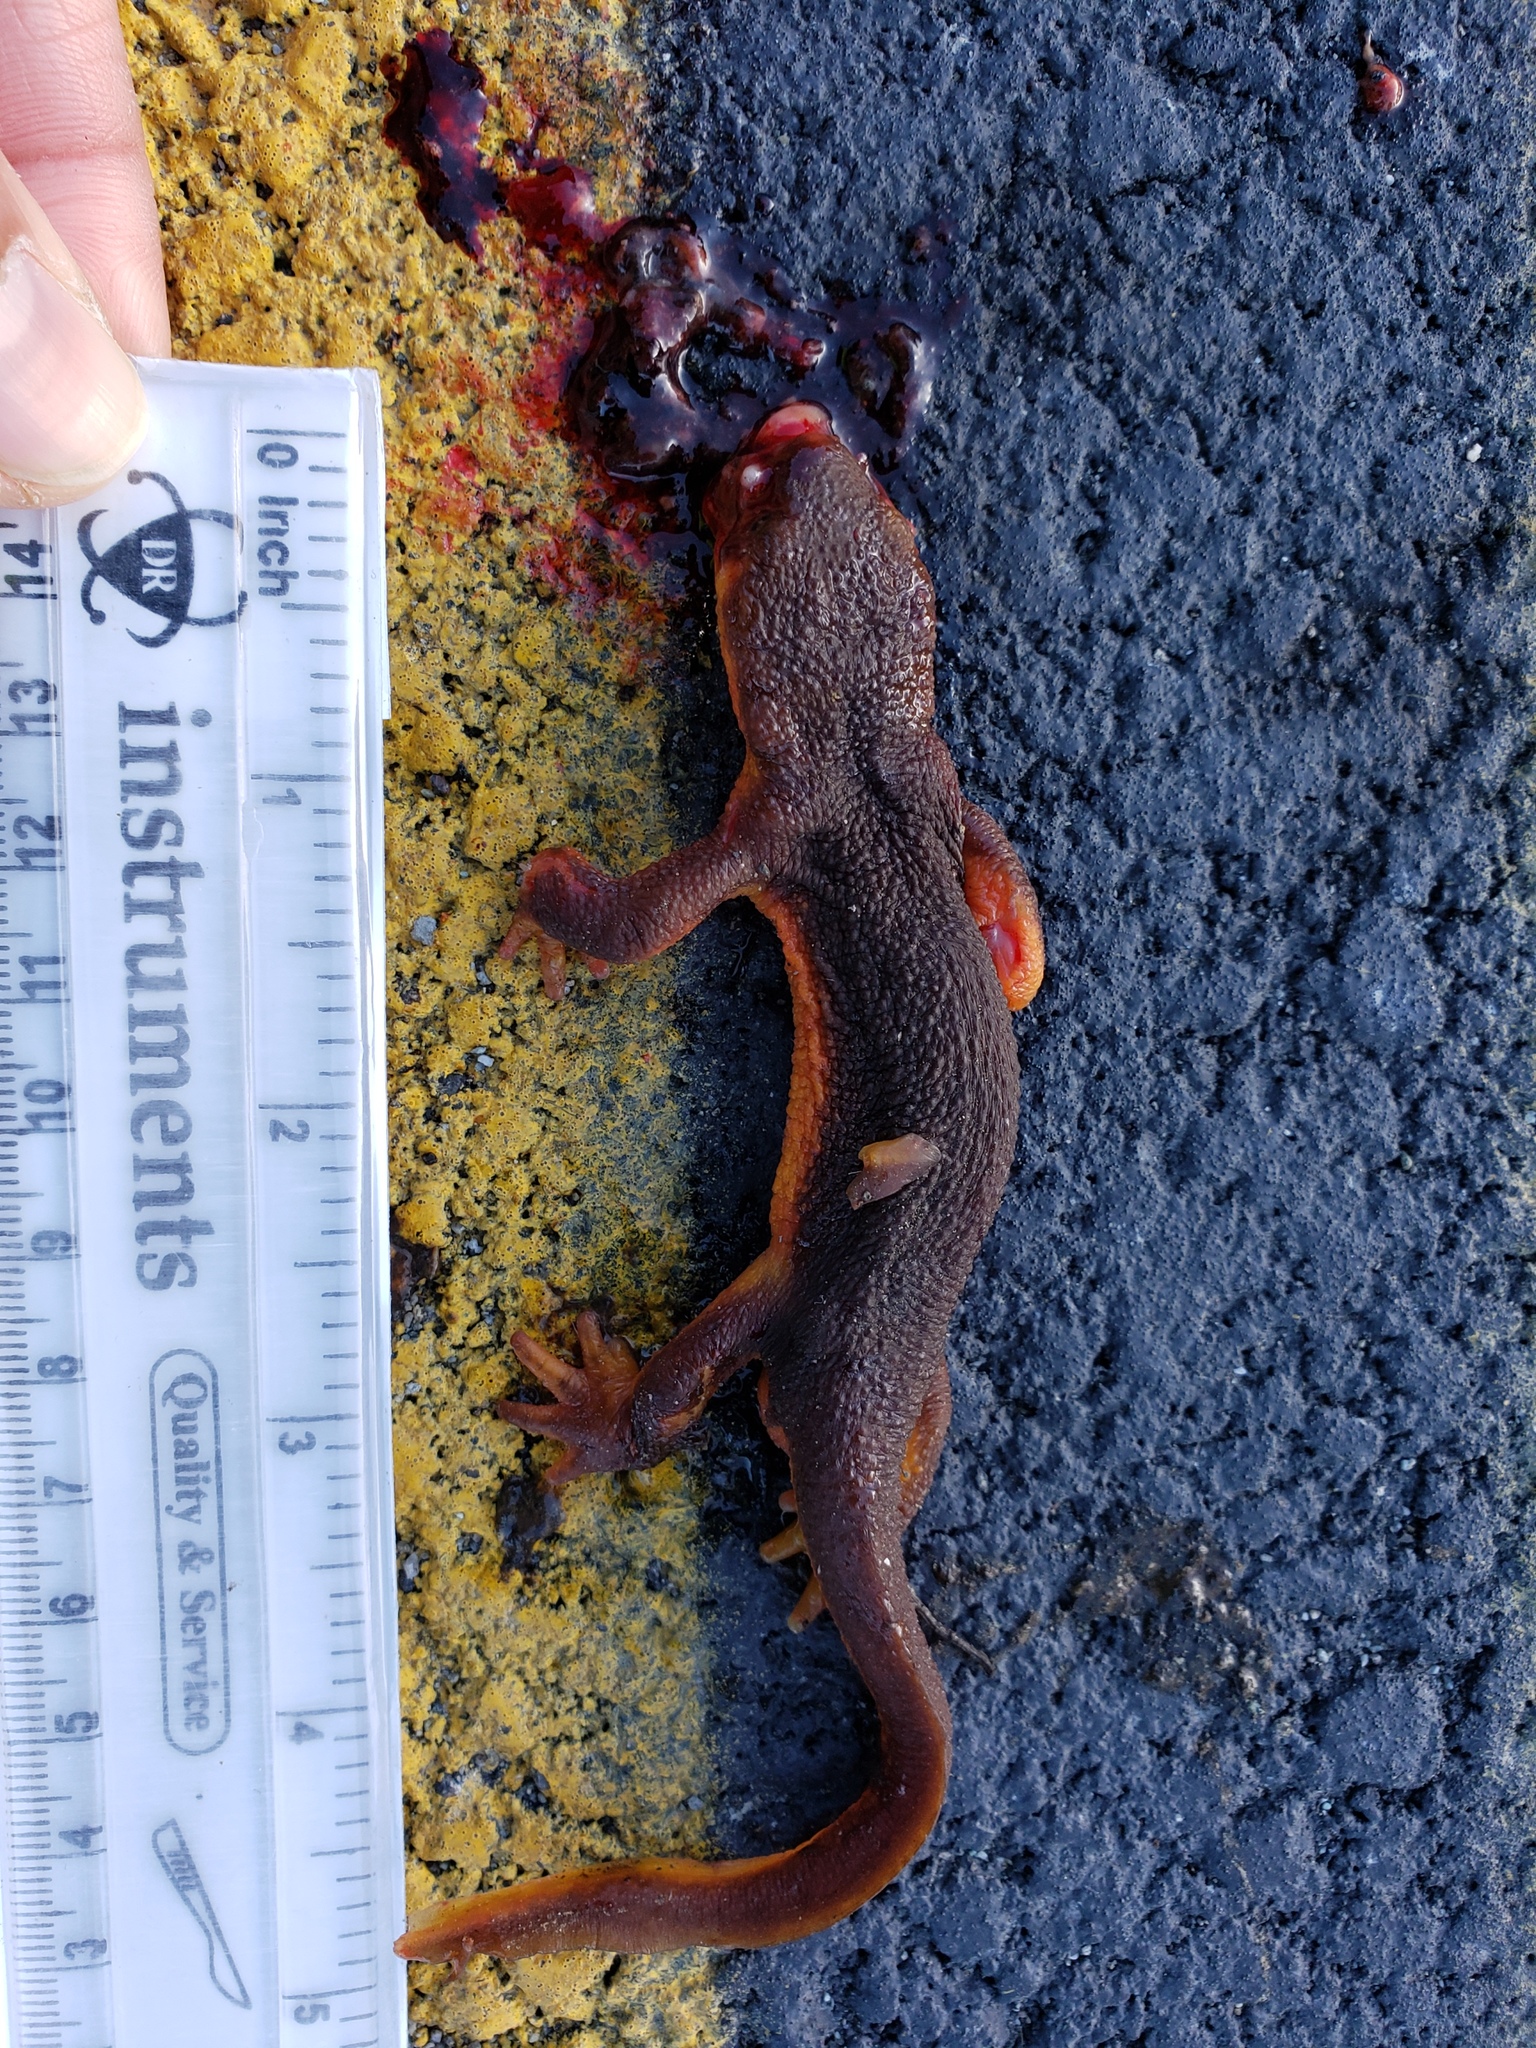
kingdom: Animalia
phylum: Chordata
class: Amphibia
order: Caudata
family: Salamandridae
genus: Taricha
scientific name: Taricha
